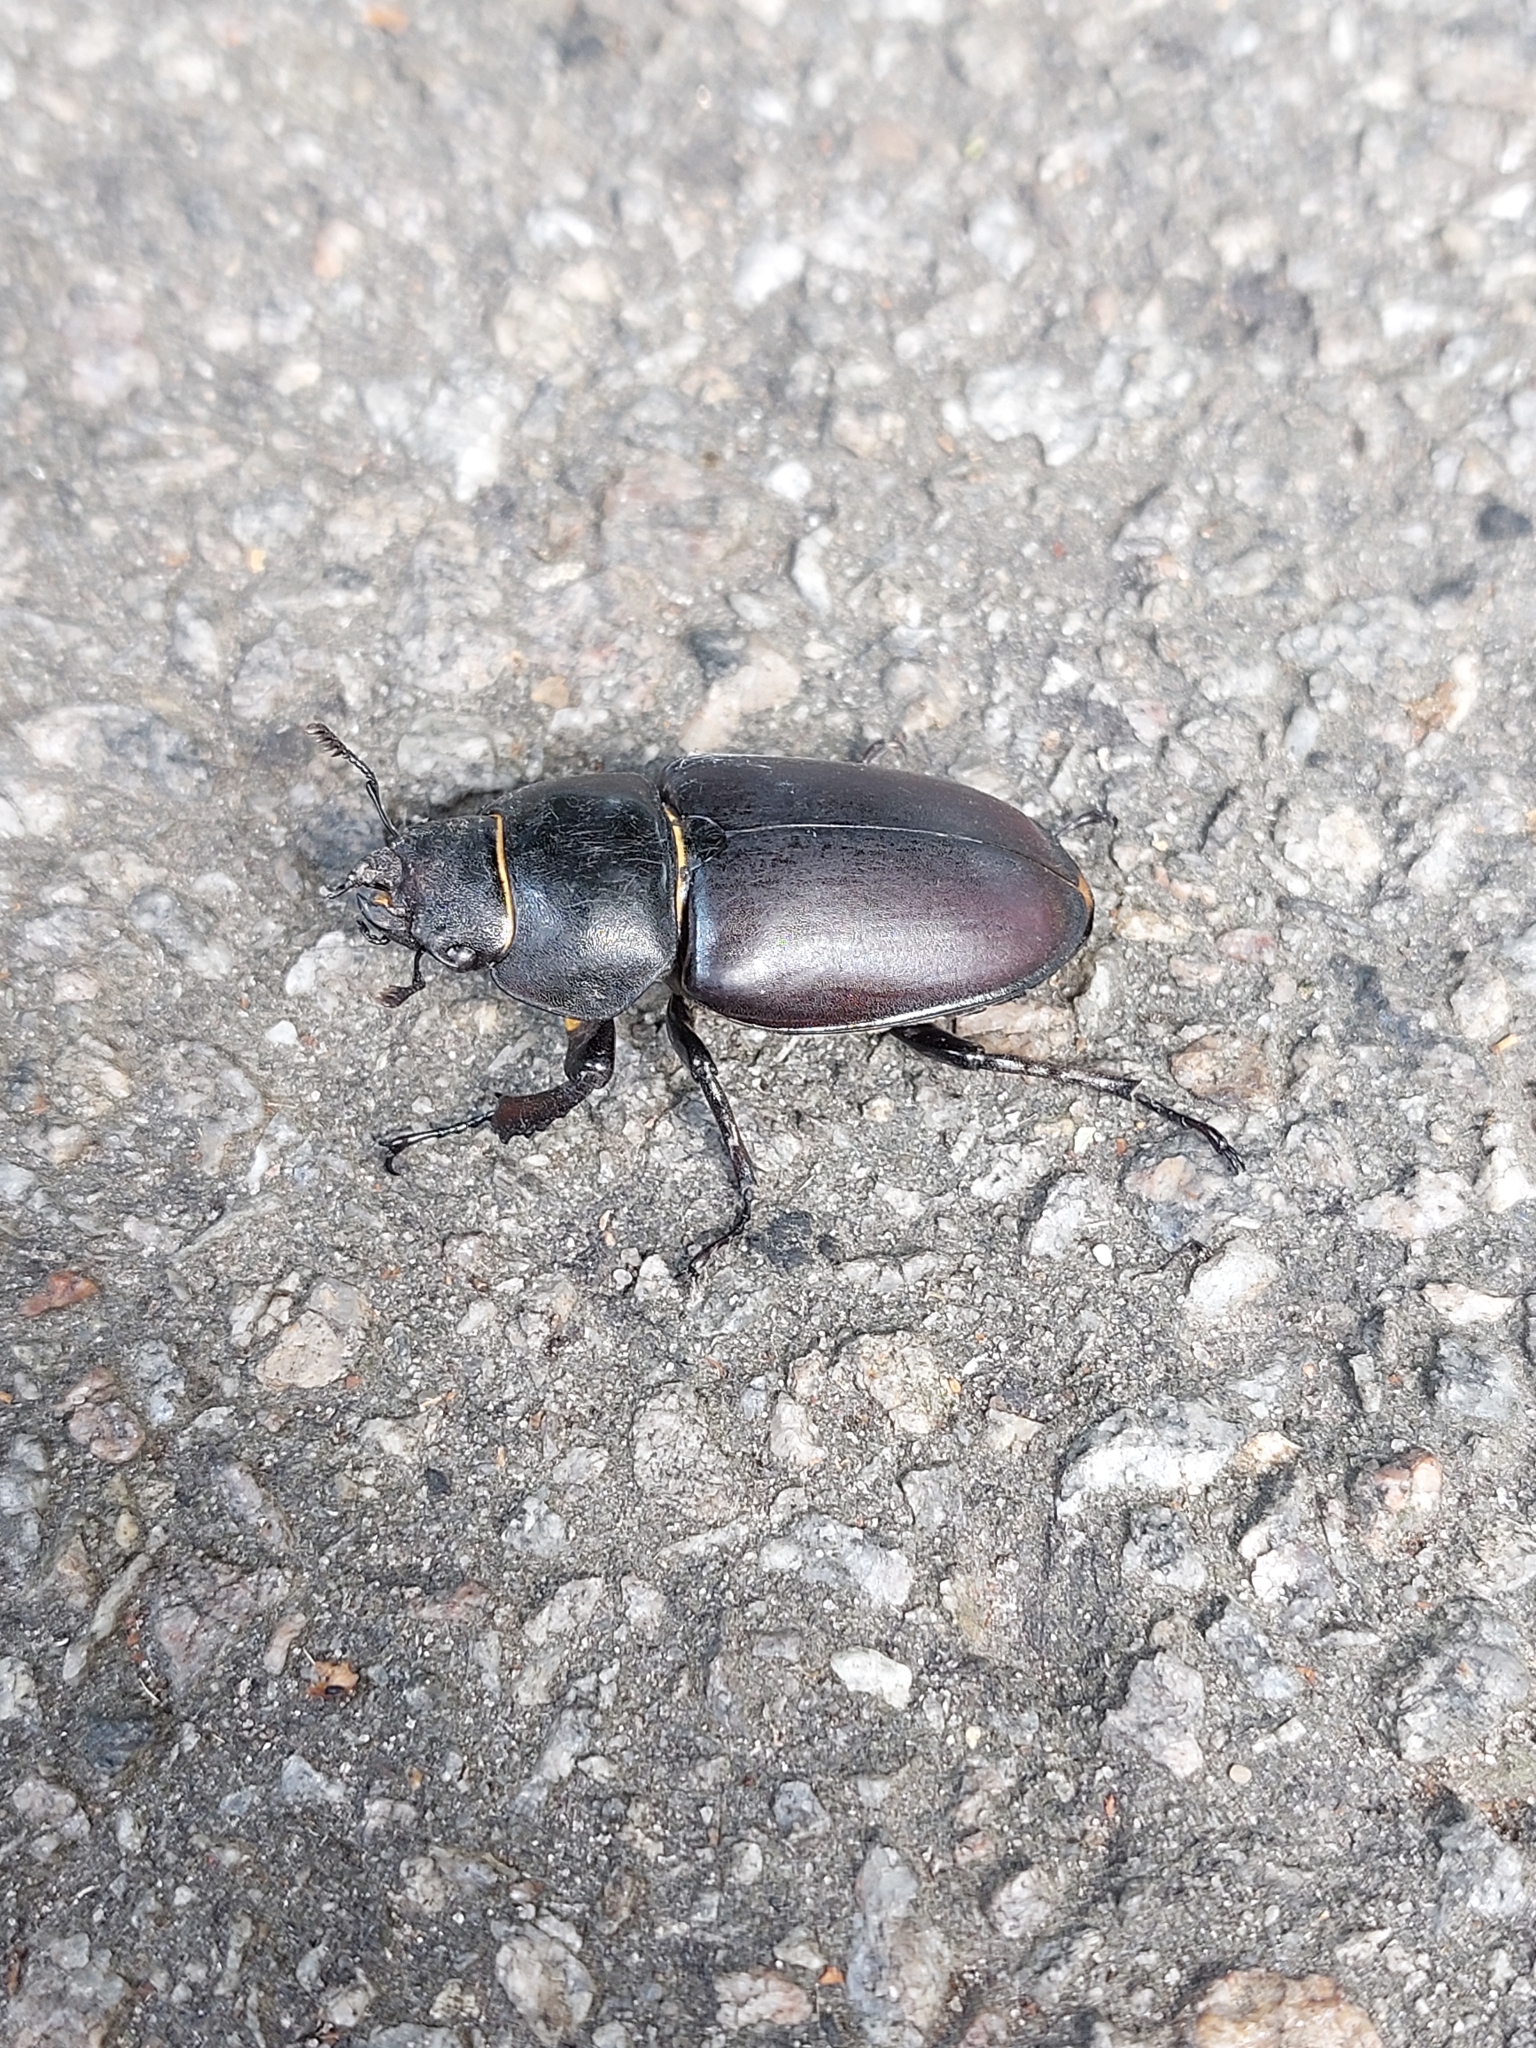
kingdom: Animalia
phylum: Arthropoda
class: Insecta
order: Coleoptera
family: Lucanidae
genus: Lucanus
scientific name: Lucanus cervus
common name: Stag beetle
